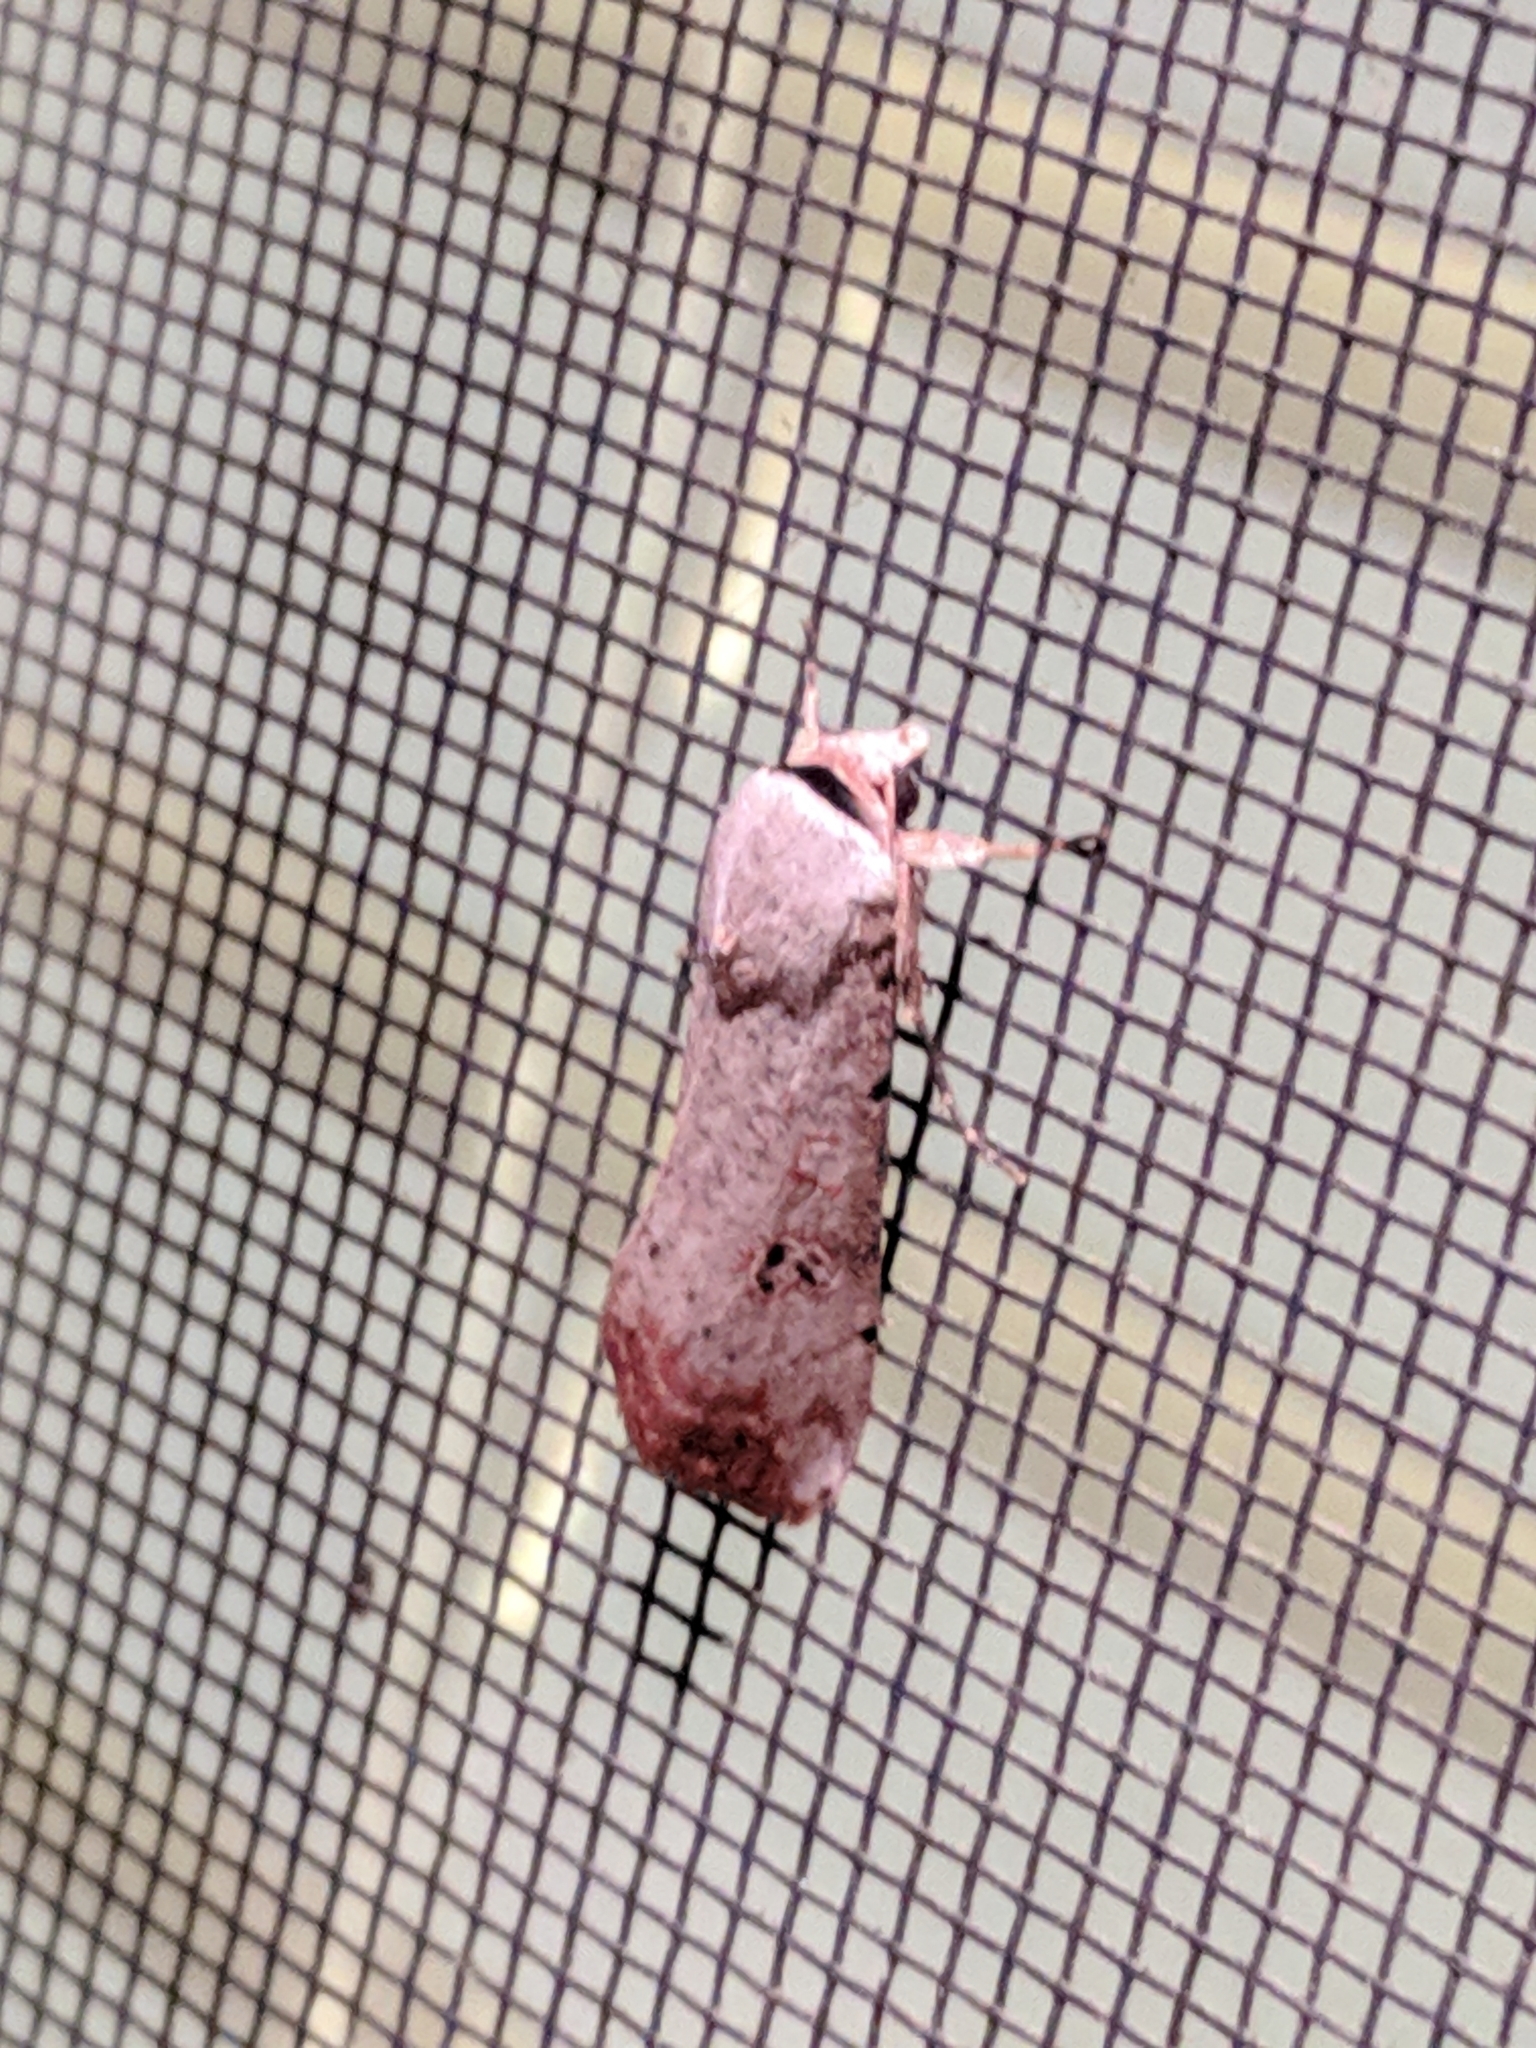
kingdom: Animalia
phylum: Arthropoda
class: Insecta
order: Lepidoptera
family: Noctuidae
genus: Anicla
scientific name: Anicla infecta
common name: Green cutworm
